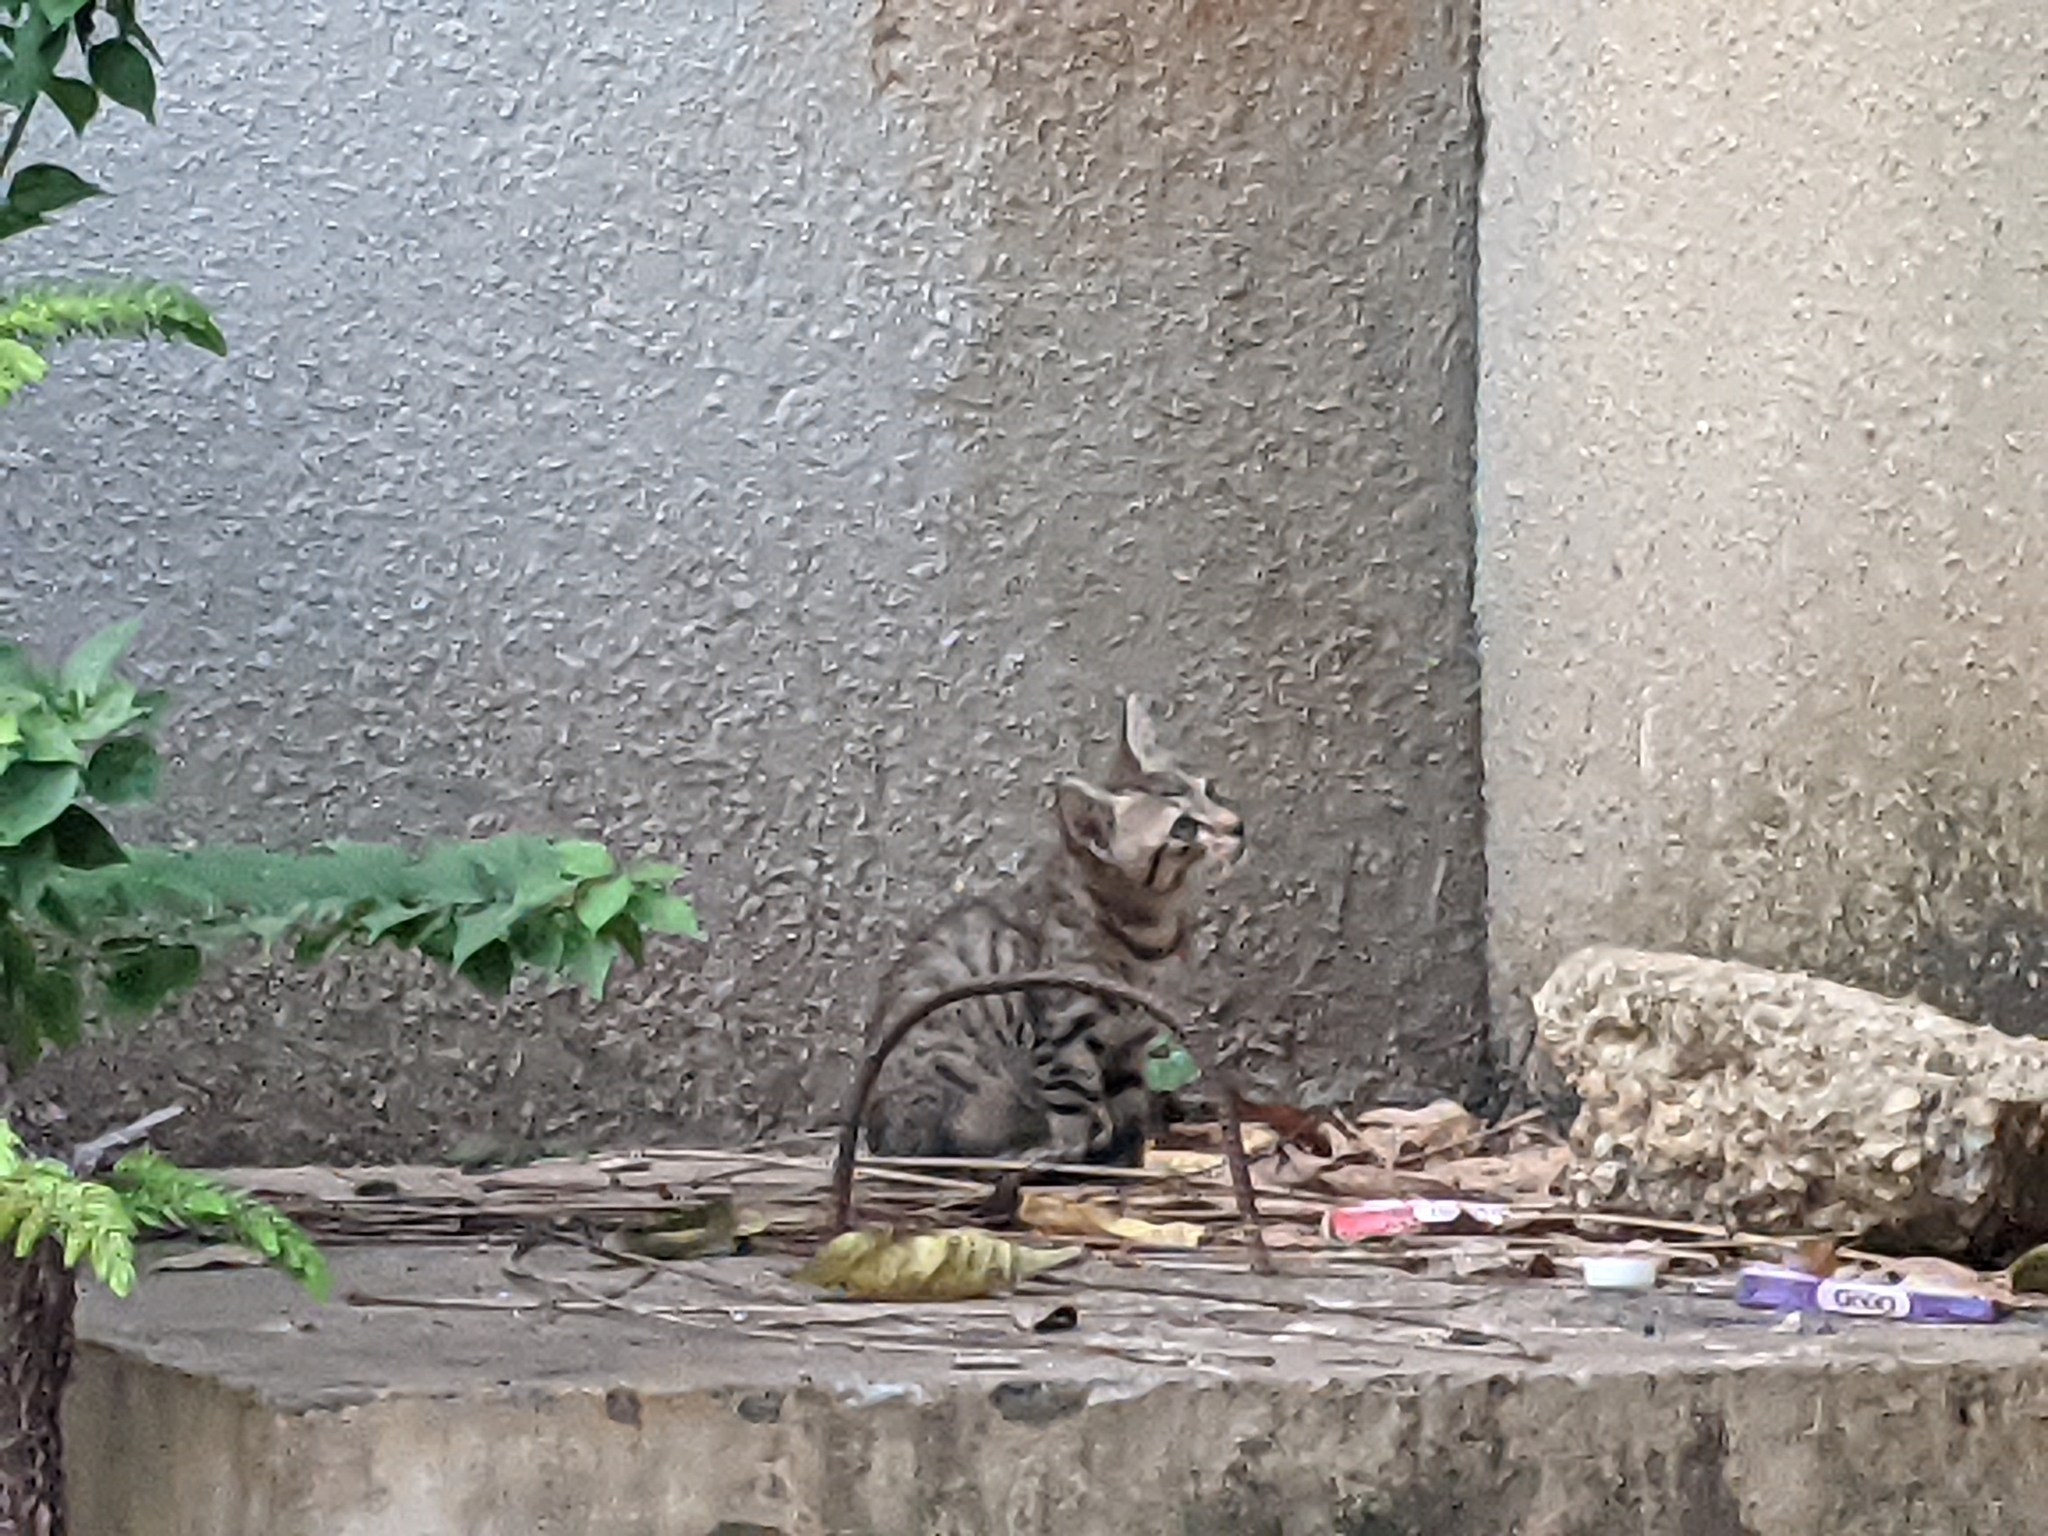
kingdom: Animalia
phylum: Chordata
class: Mammalia
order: Carnivora
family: Felidae
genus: Felis
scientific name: Felis catus
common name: Domestic cat
